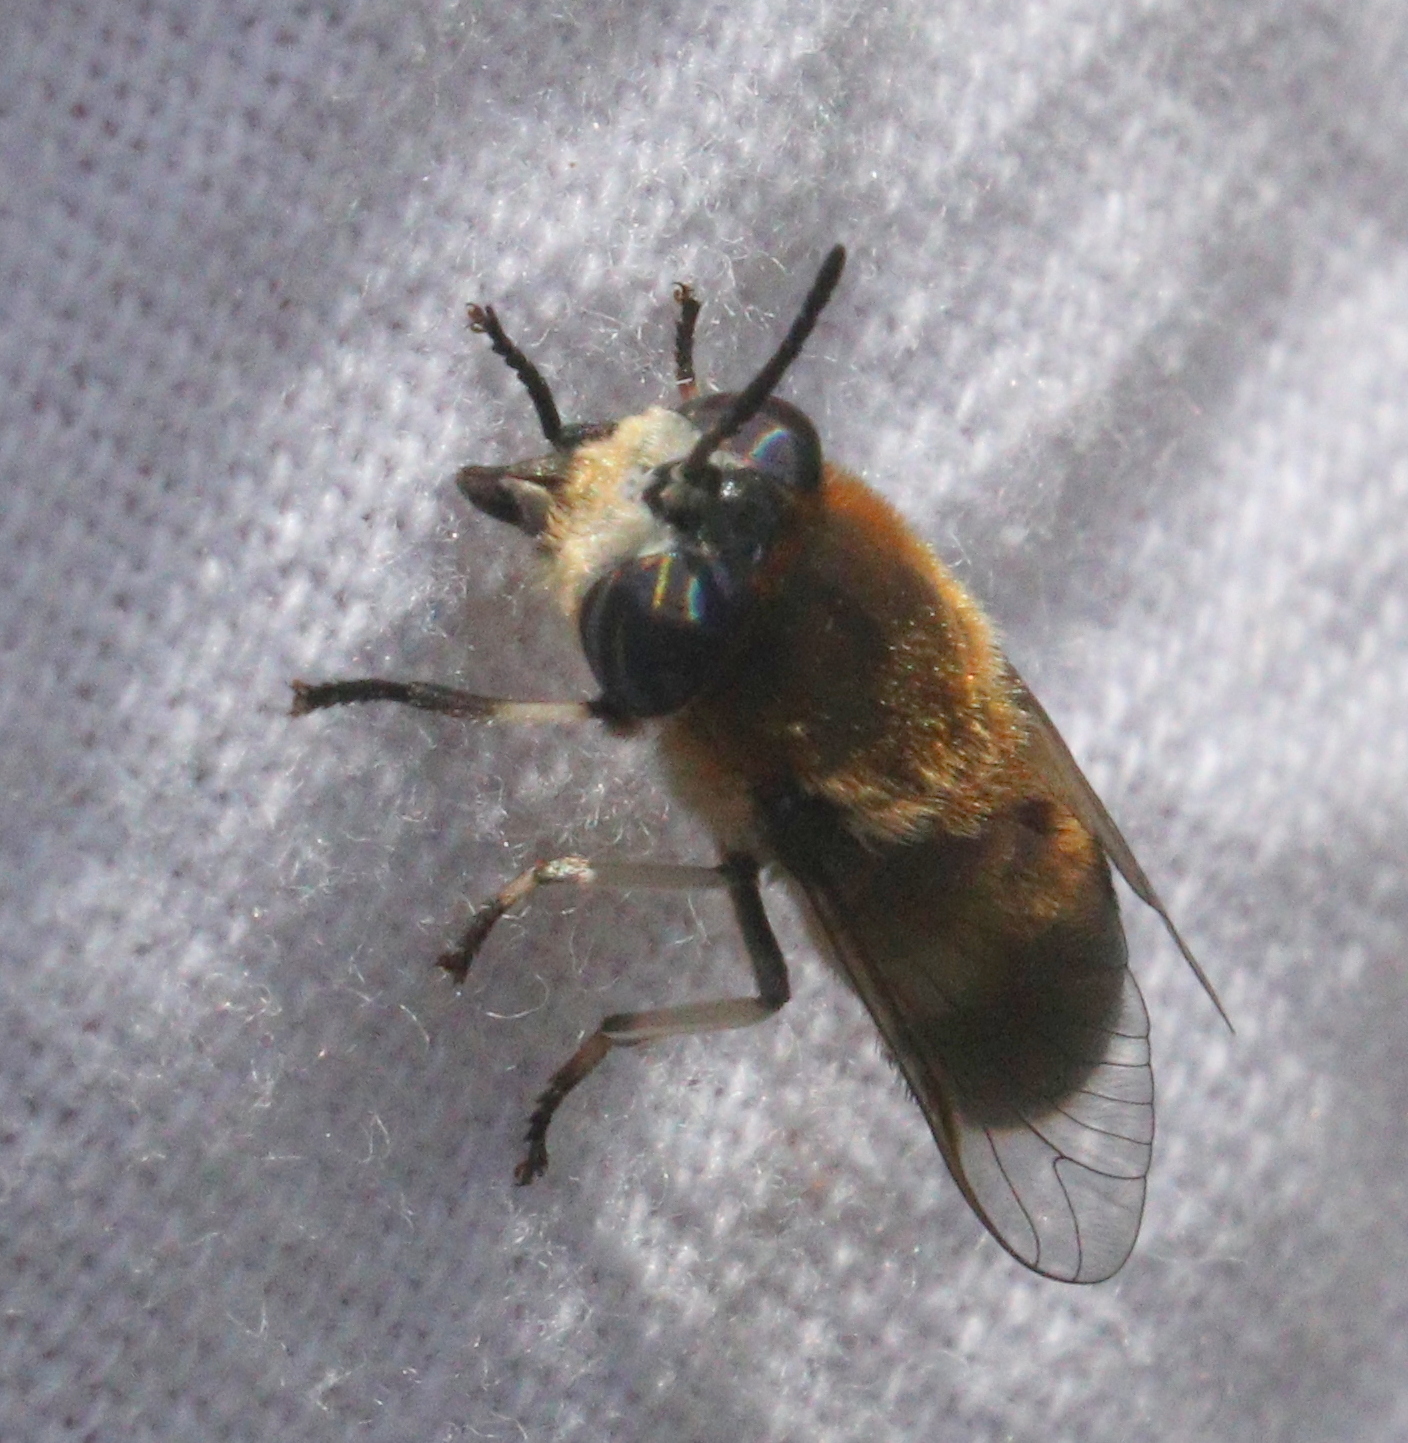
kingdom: Animalia
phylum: Arthropoda
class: Insecta
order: Diptera
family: Tabanidae
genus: Heptatoma
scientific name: Heptatoma pellucens
